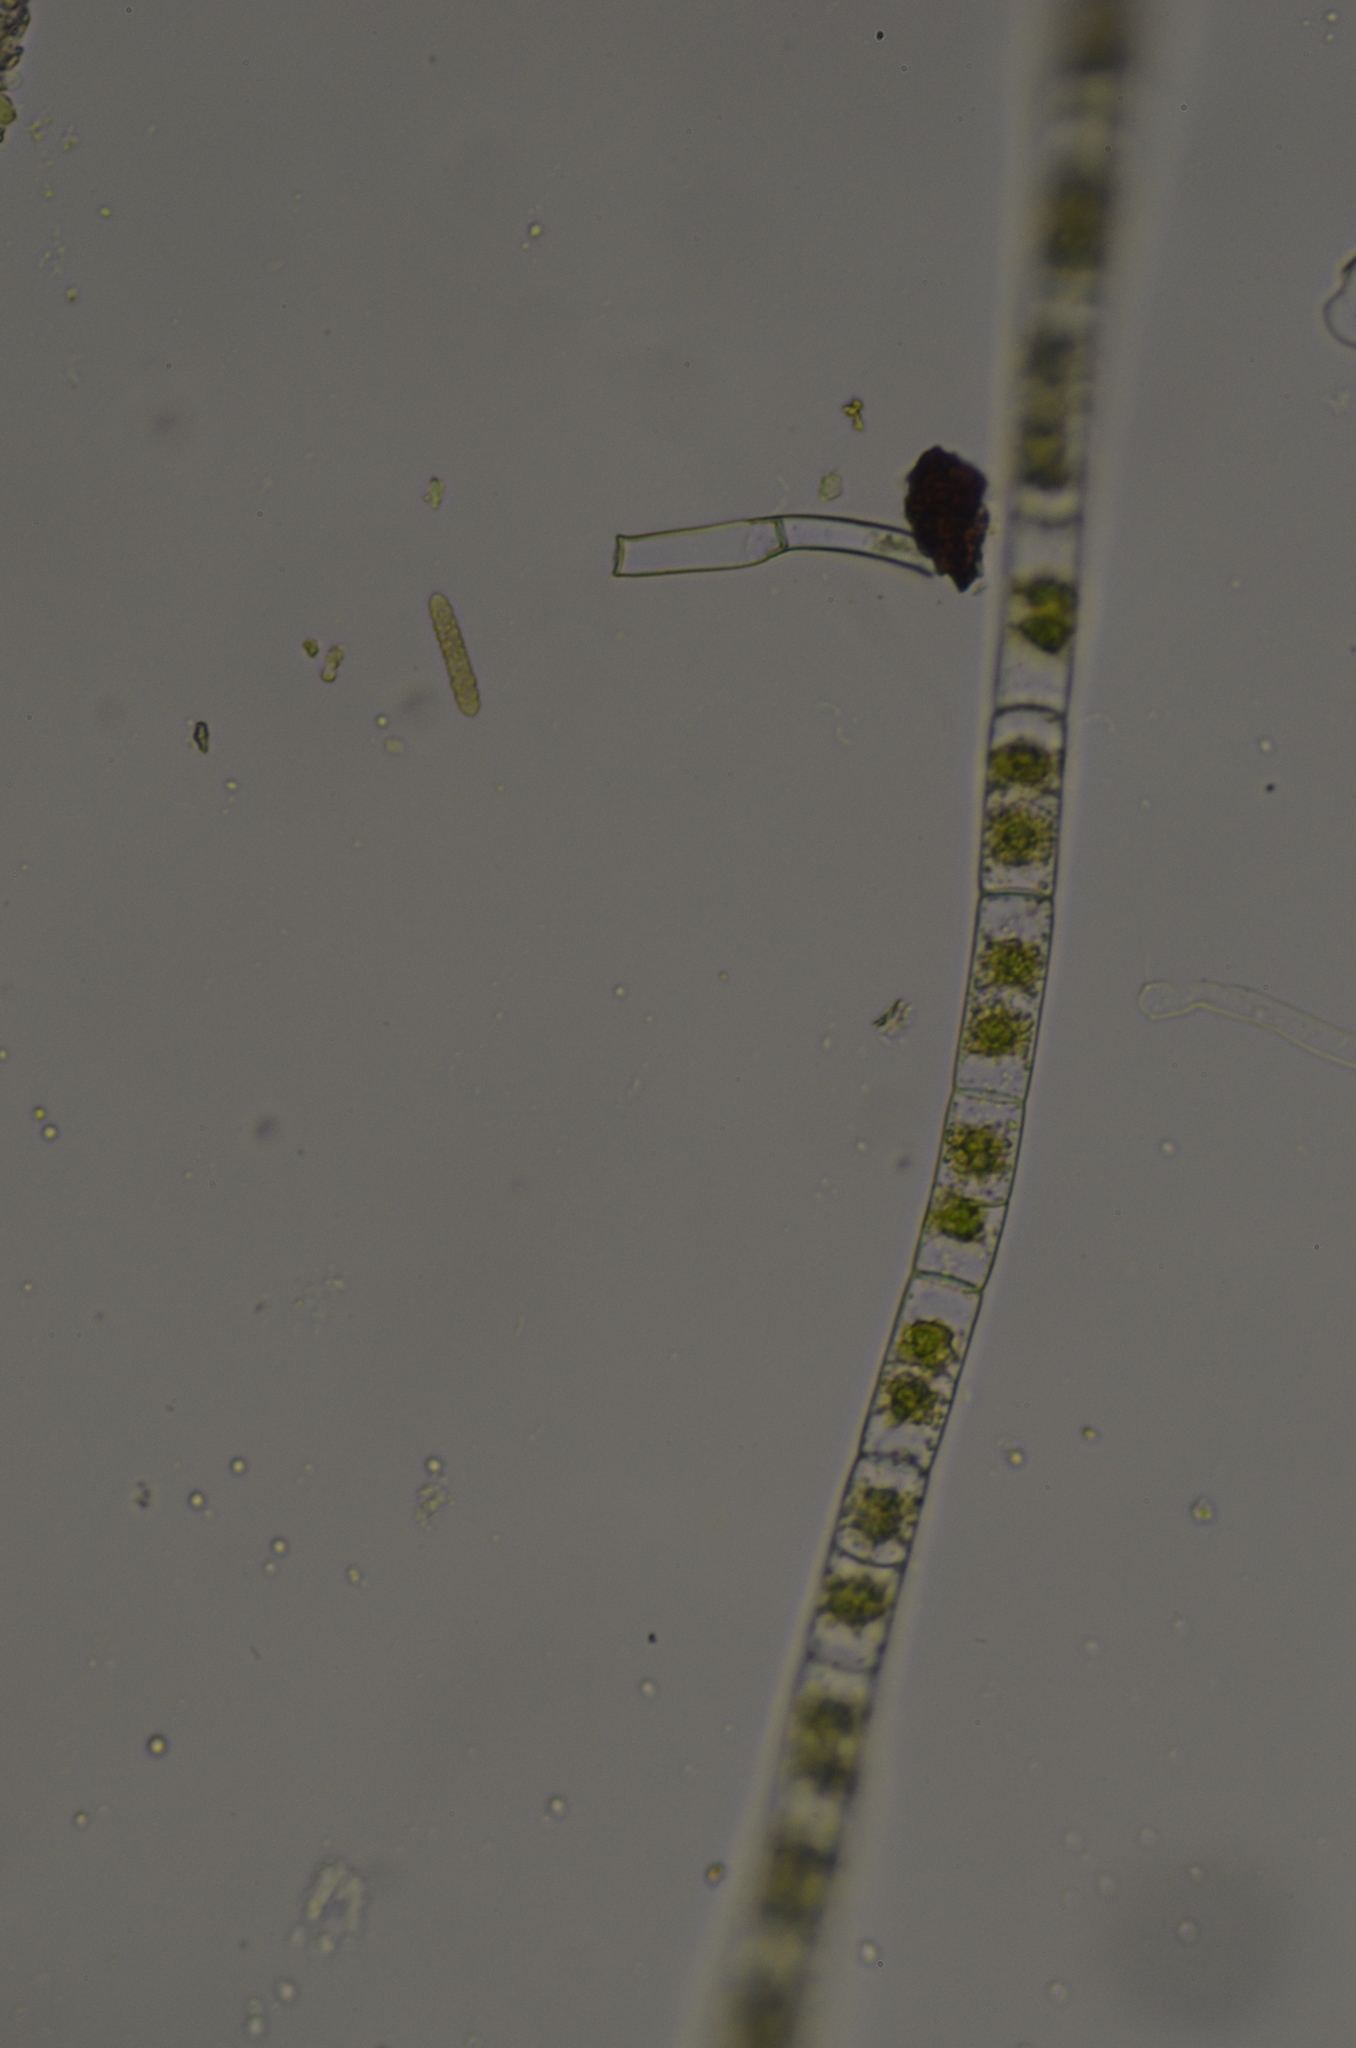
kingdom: Plantae
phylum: Charophyta
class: Zygnematophyceae
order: Zygnematales
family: Zygnemataceae
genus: Zygnema
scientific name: Zygnema
